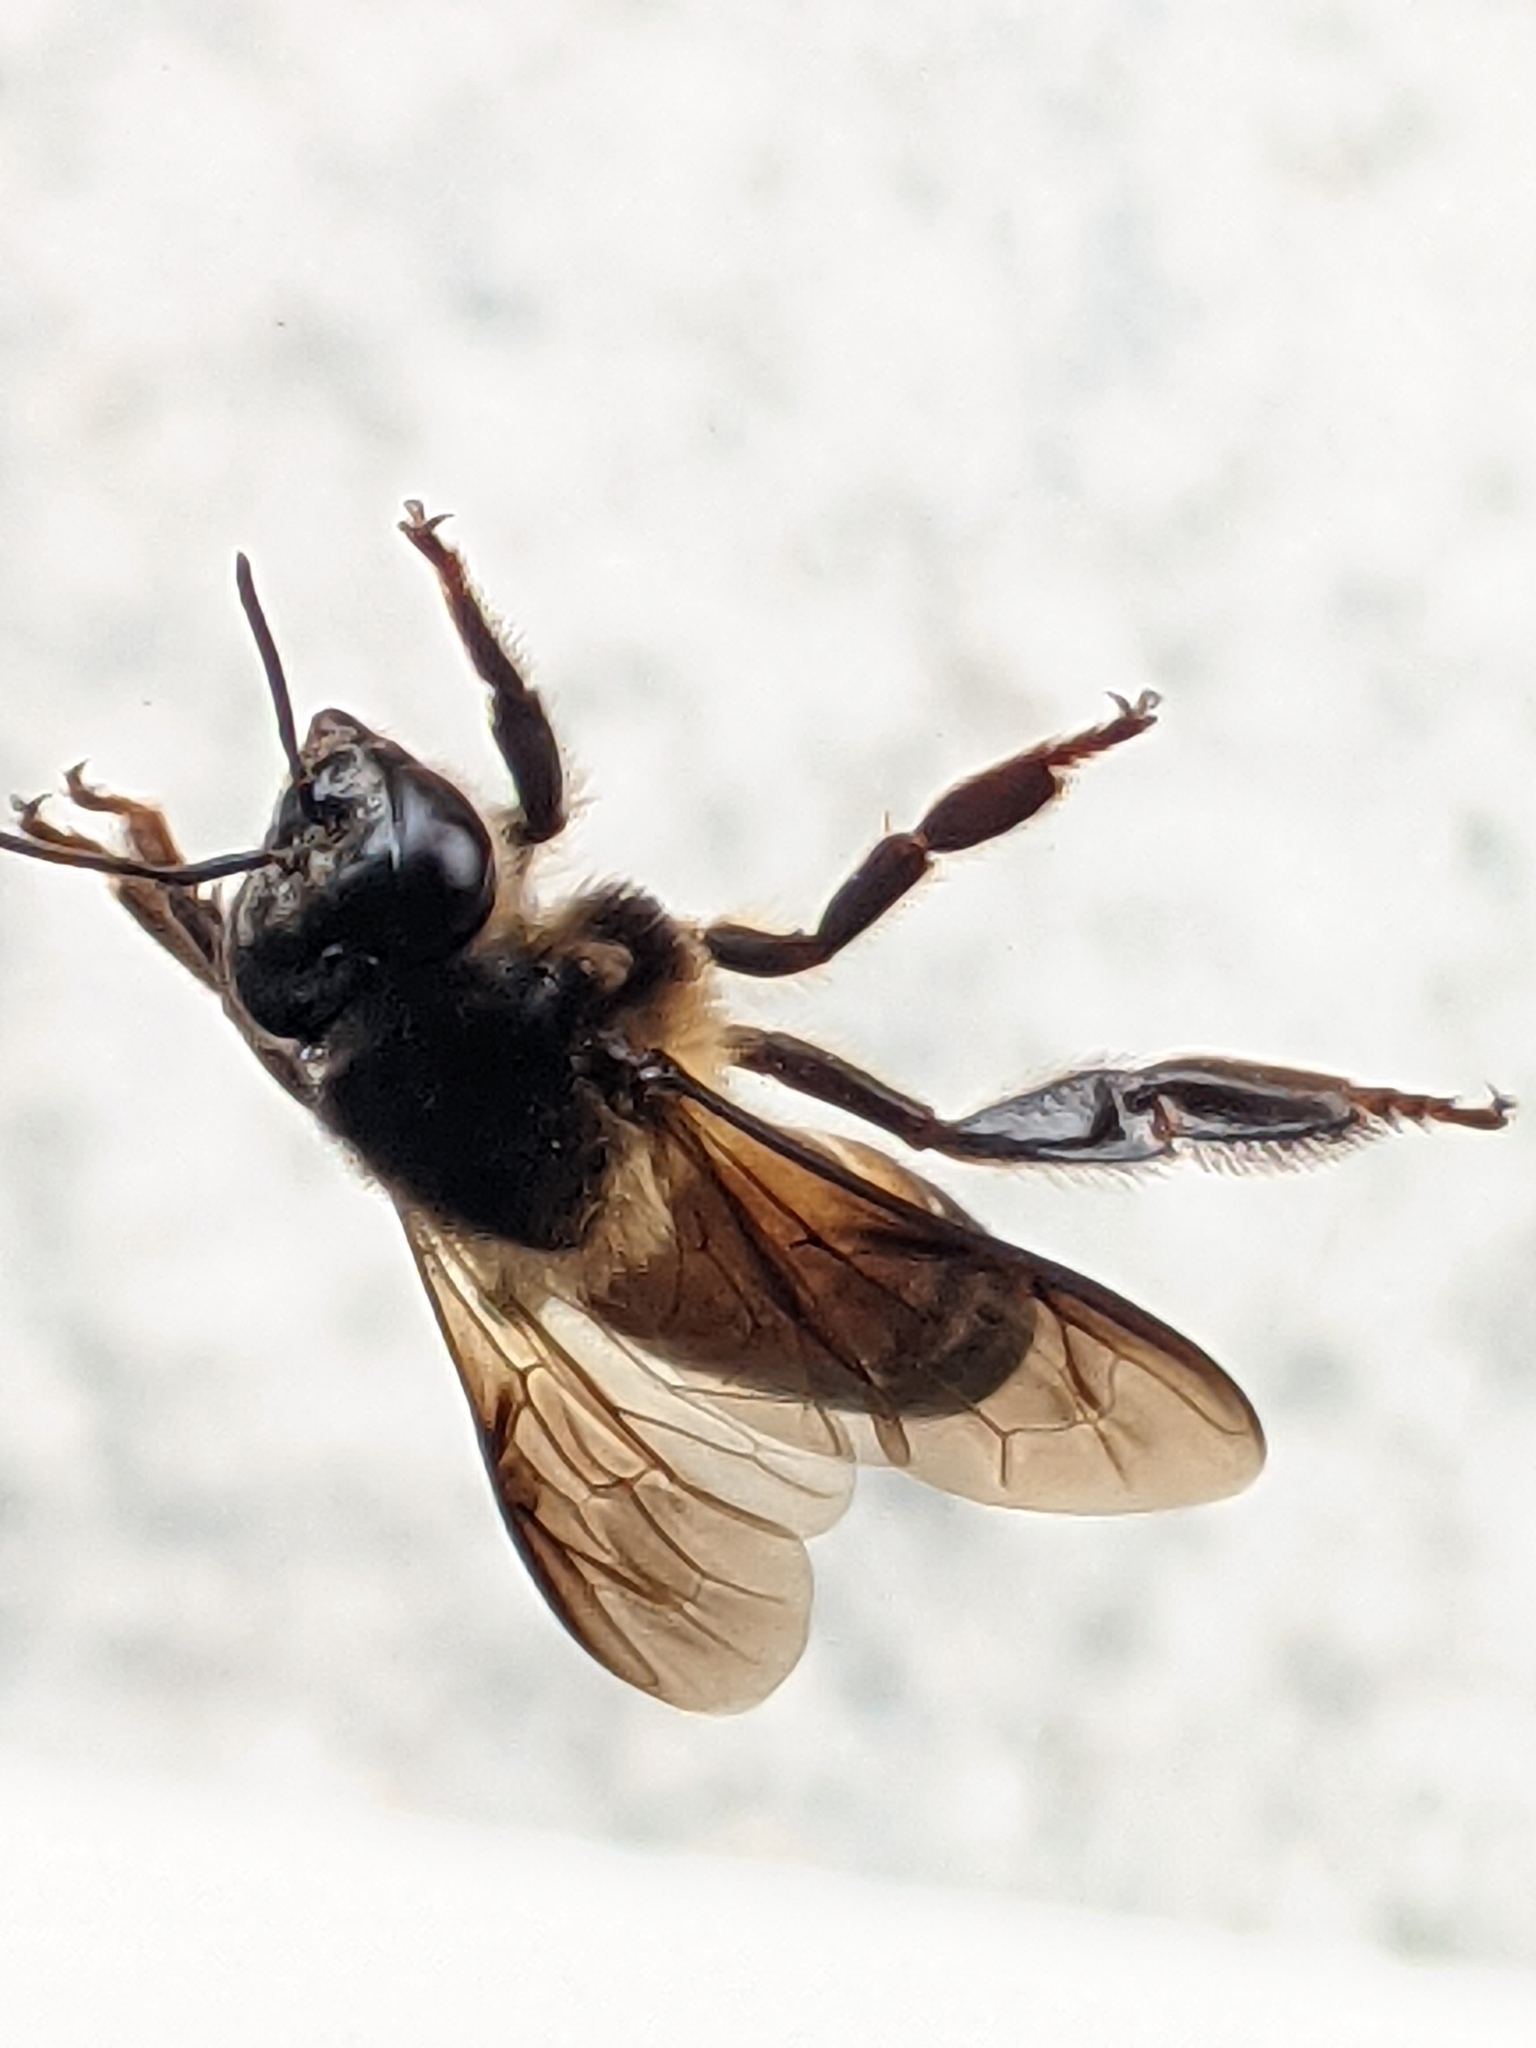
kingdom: Animalia
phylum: Arthropoda
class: Insecta
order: Hymenoptera
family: Apidae
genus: Apis
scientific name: Apis dorsata
